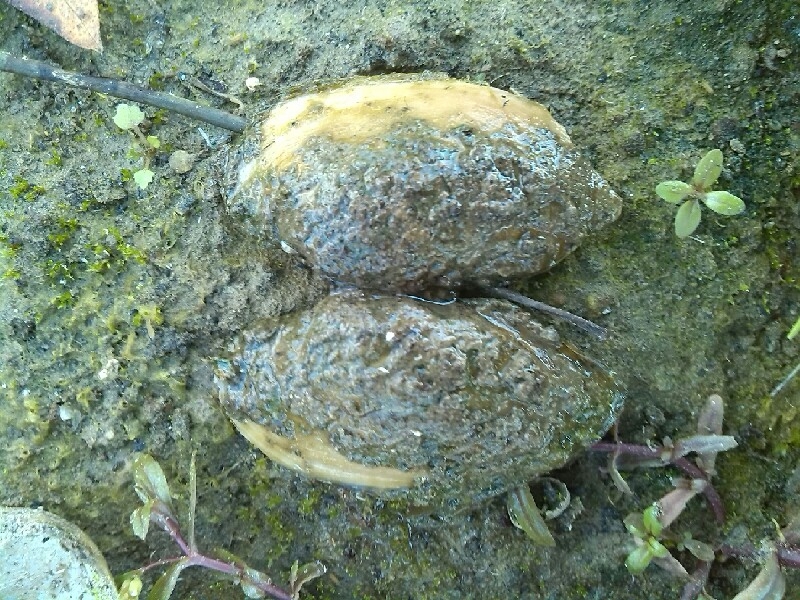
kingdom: Animalia
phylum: Mollusca
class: Bivalvia
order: Unionida
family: Unionidae
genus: Unio
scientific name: Unio tumidus
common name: Swollen river mussel
